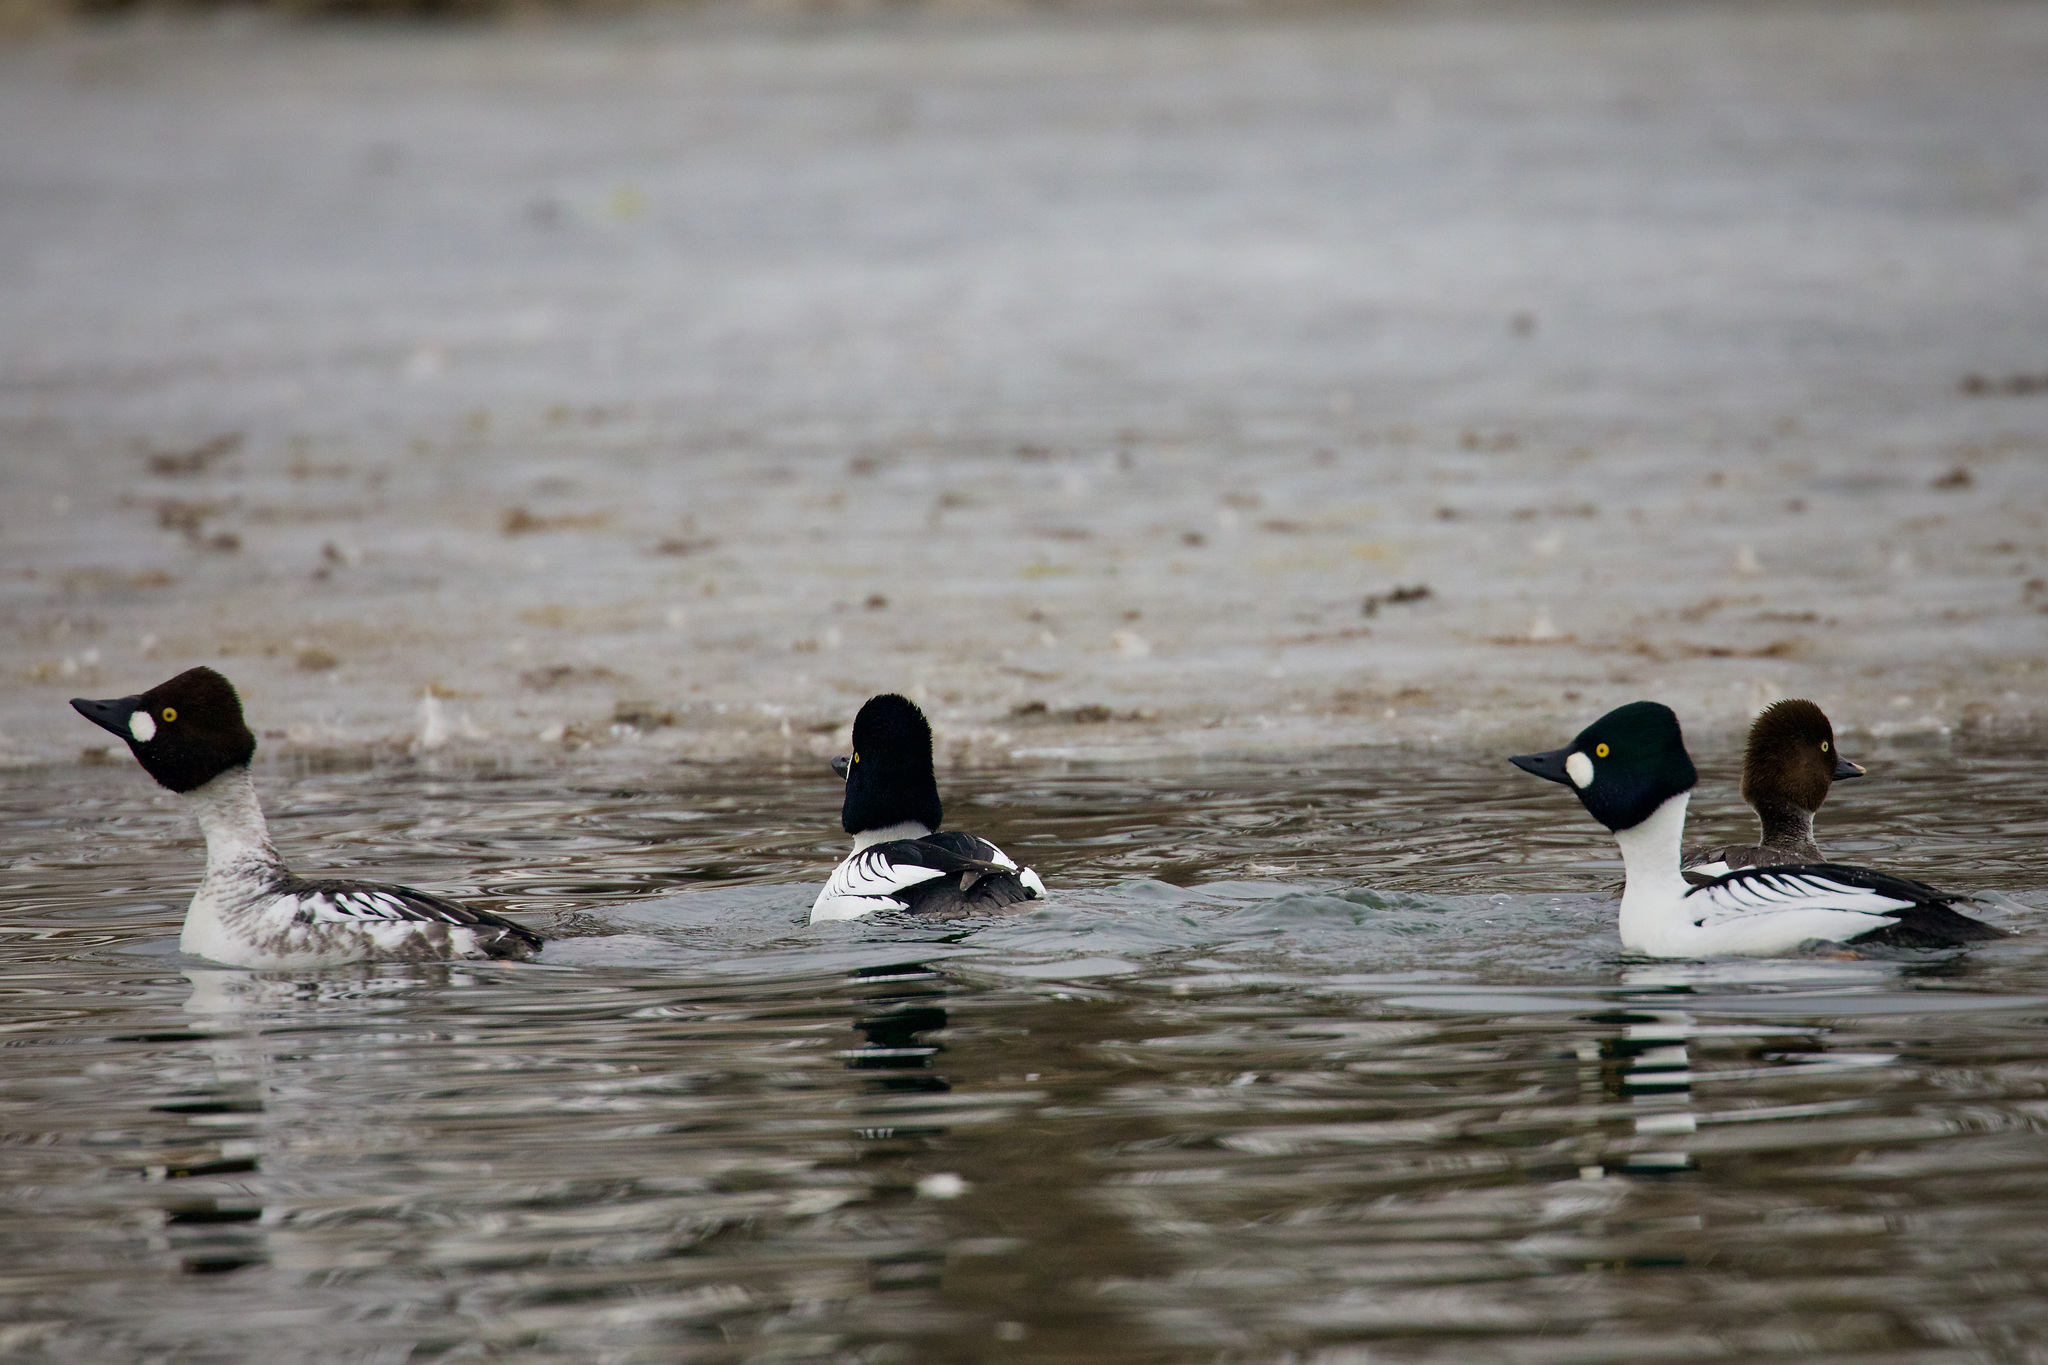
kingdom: Animalia
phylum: Chordata
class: Aves
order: Anseriformes
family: Anatidae
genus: Bucephala
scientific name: Bucephala clangula
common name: Common goldeneye
